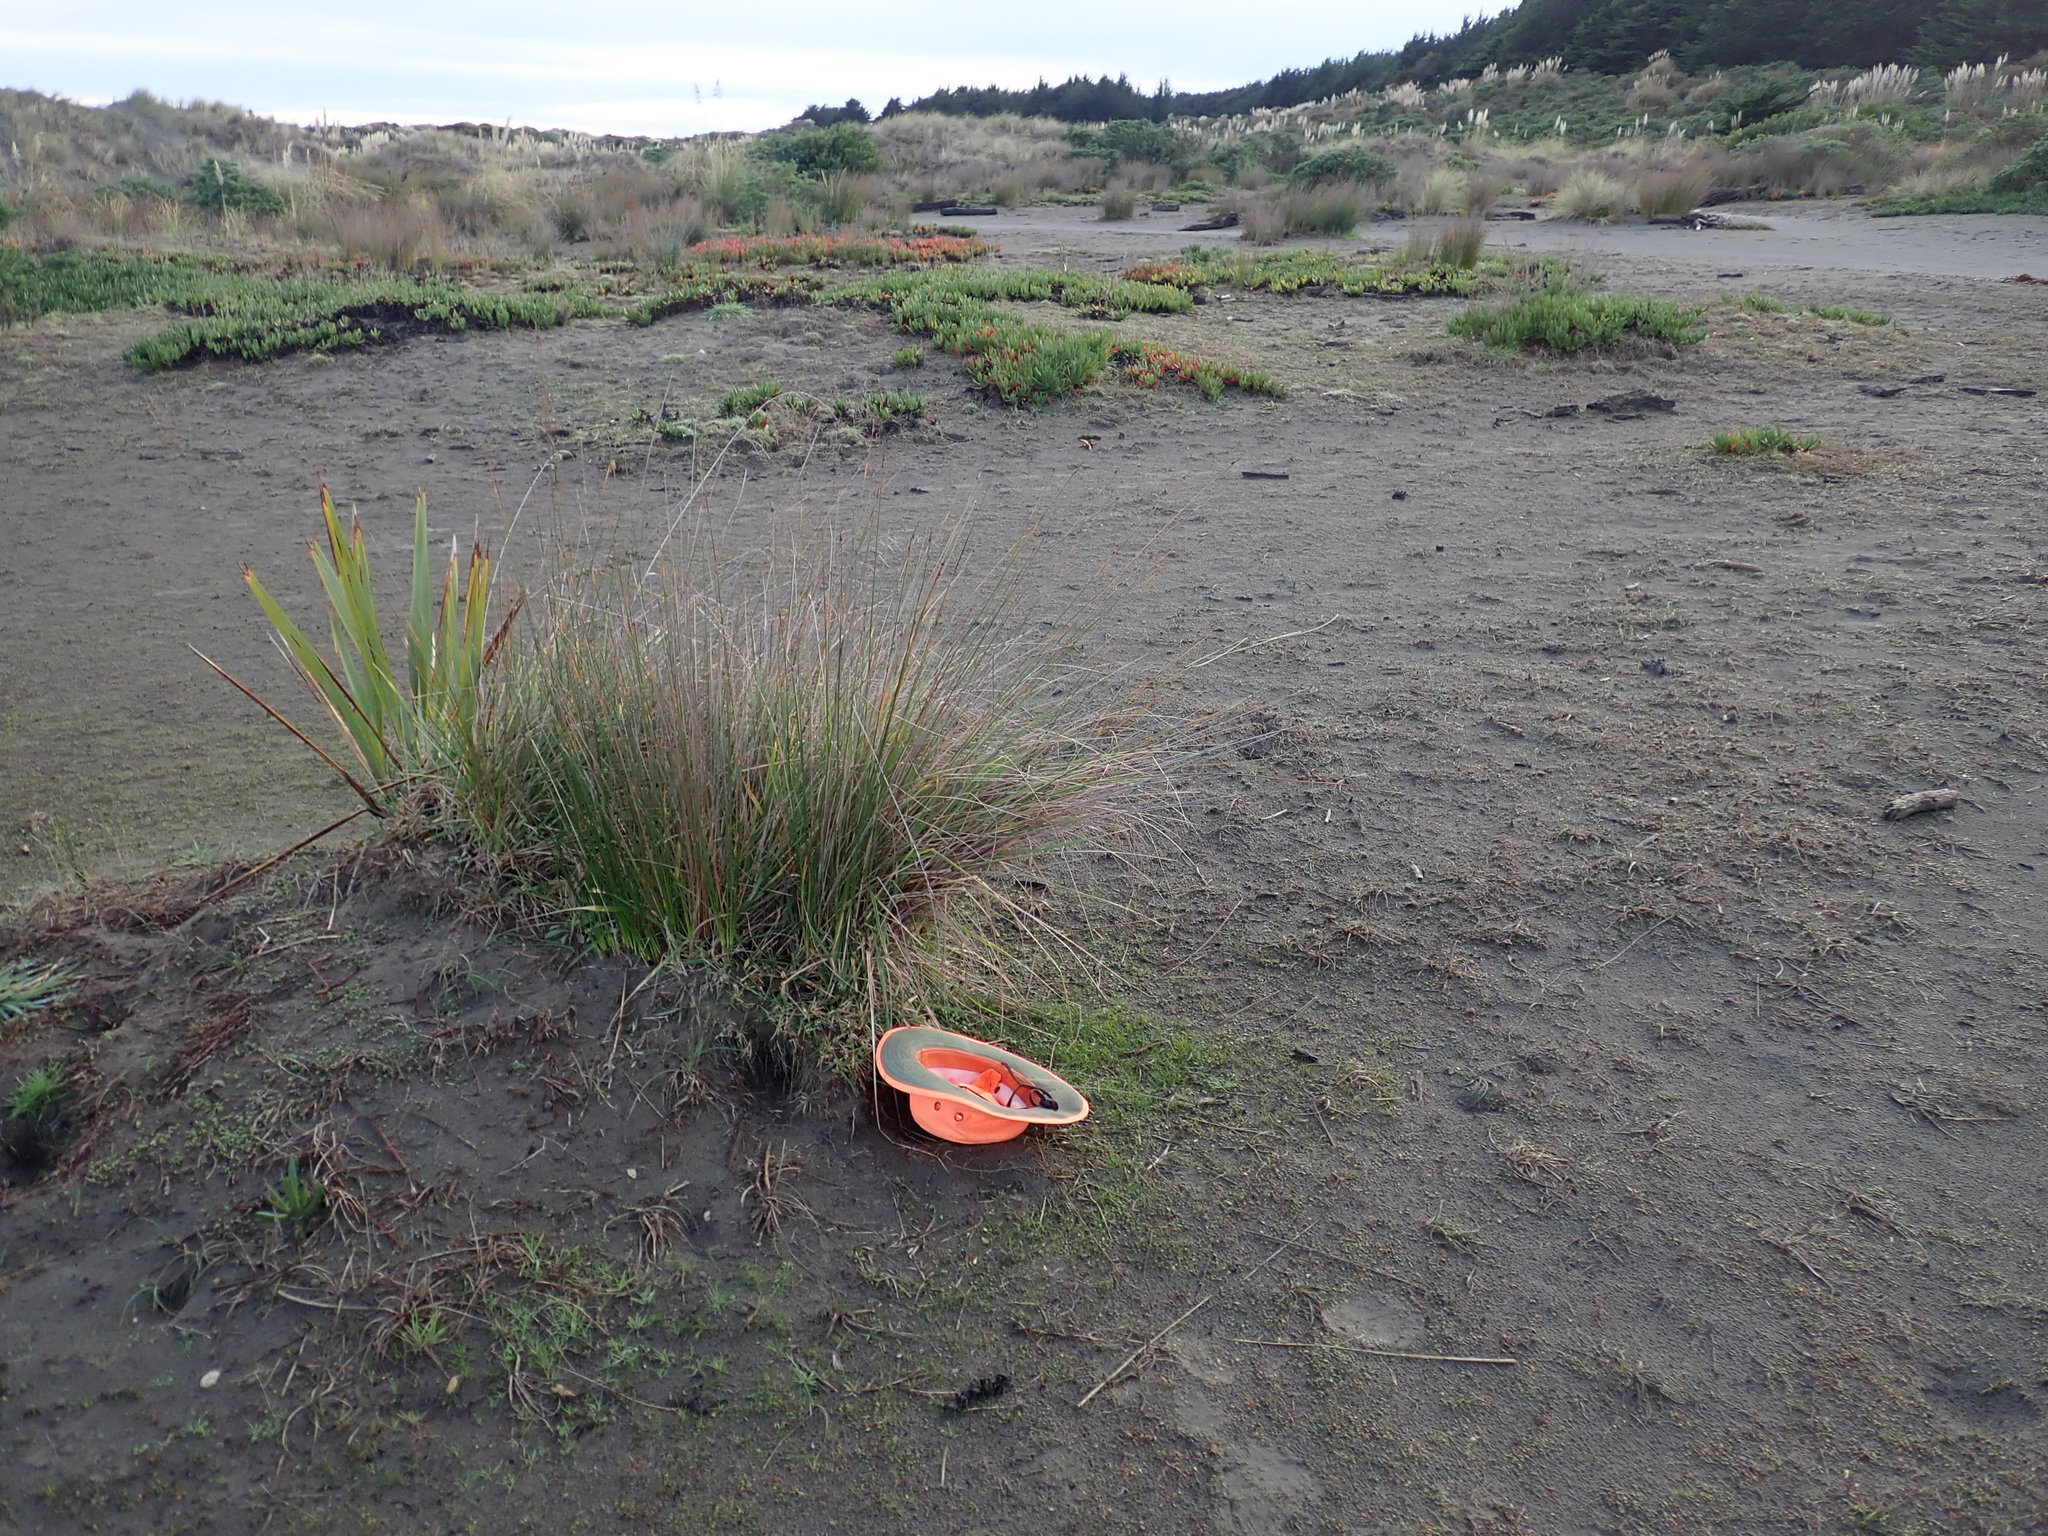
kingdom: Plantae
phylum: Tracheophyta
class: Liliopsida
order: Poales
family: Cyperaceae
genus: Ficinia
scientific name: Ficinia nodosa
